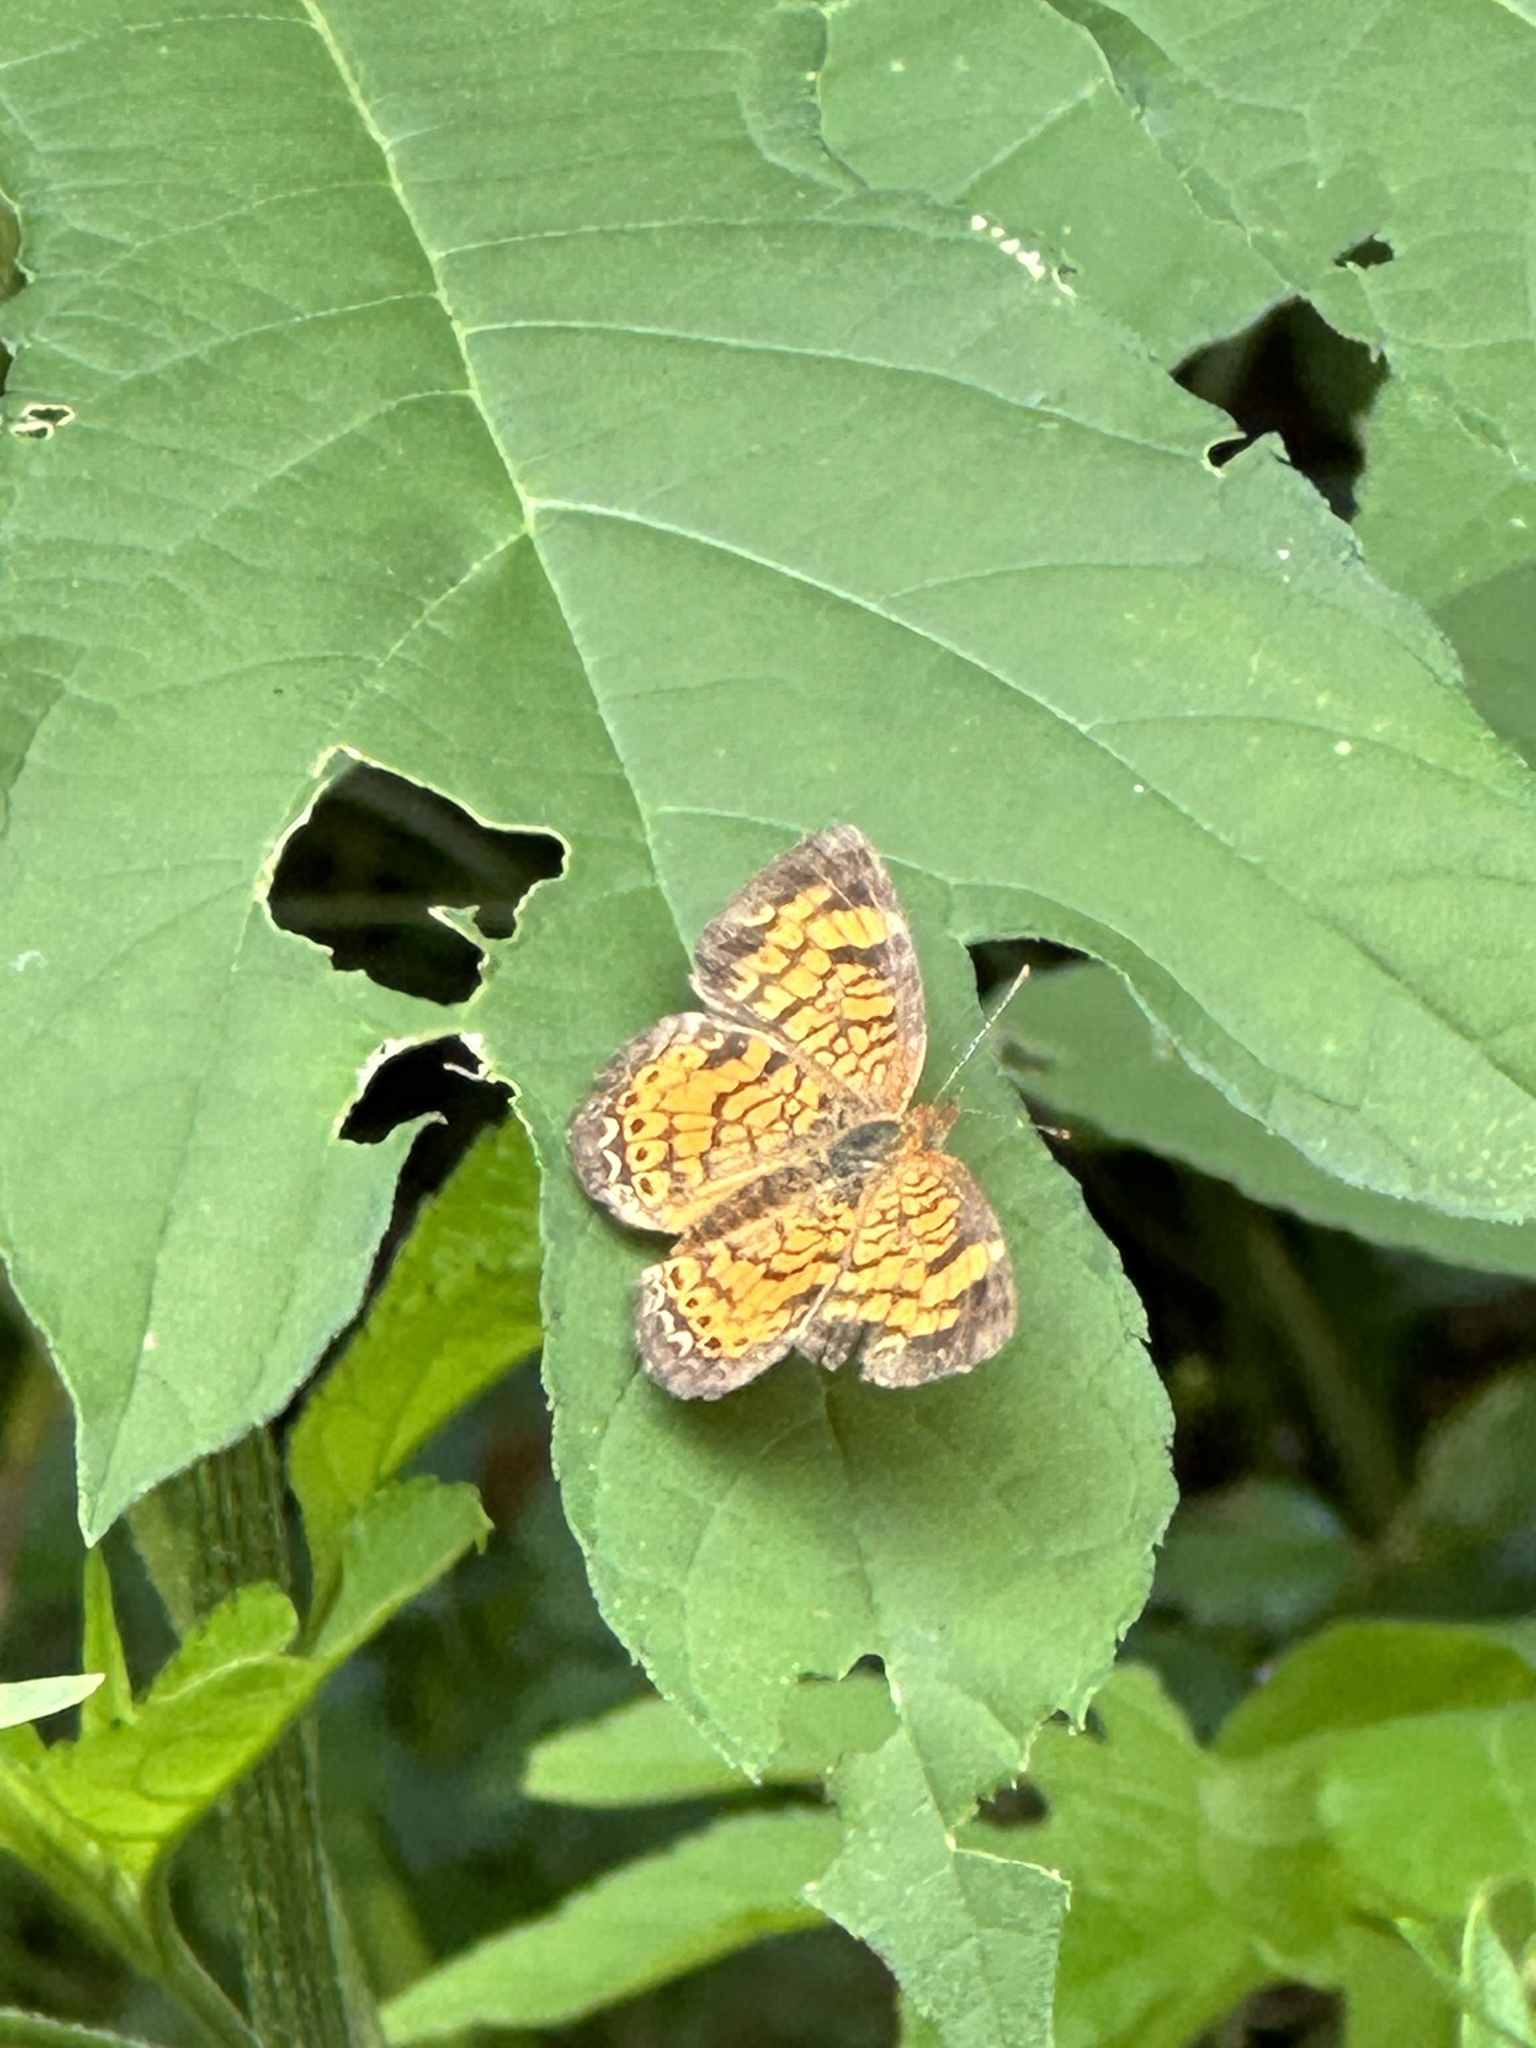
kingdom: Animalia
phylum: Arthropoda
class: Insecta
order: Lepidoptera
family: Nymphalidae
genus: Phyciodes
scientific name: Phyciodes tharos
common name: Pearl crescent
